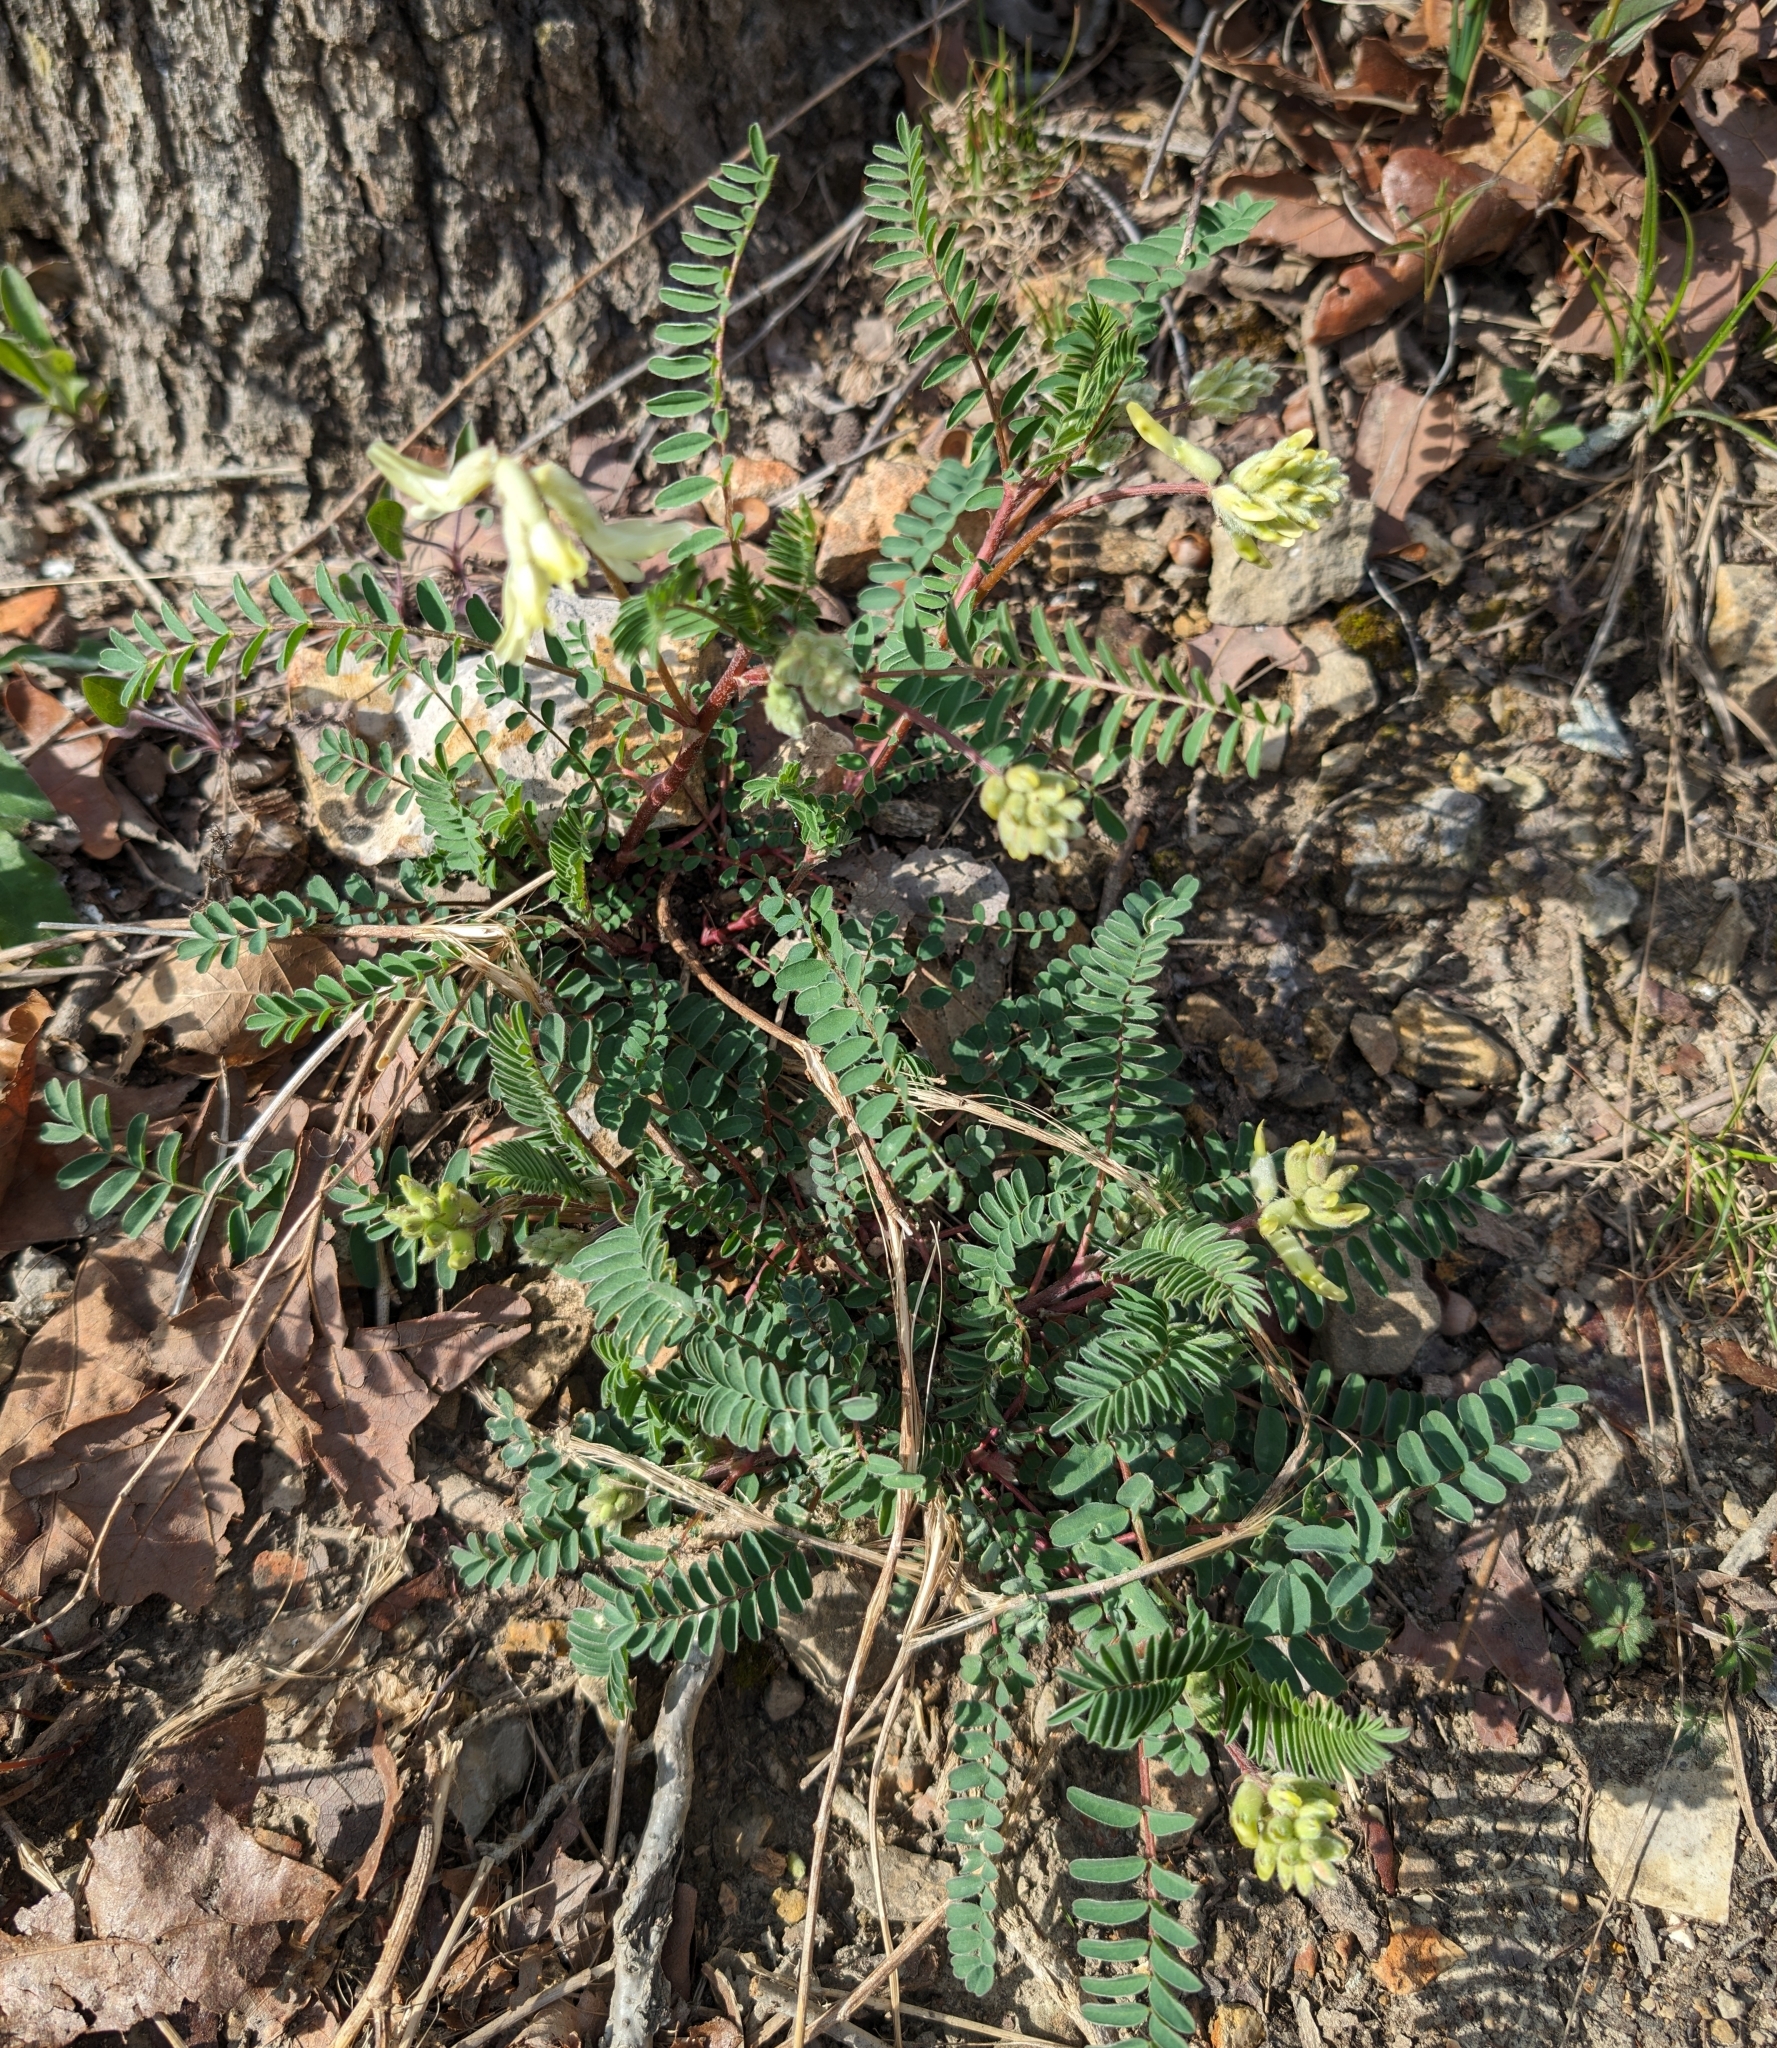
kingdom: Plantae
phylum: Tracheophyta
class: Magnoliopsida
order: Fabales
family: Fabaceae
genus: Astragalus
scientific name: Astragalus crassicarpus
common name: Ground-plum milk-vetch
